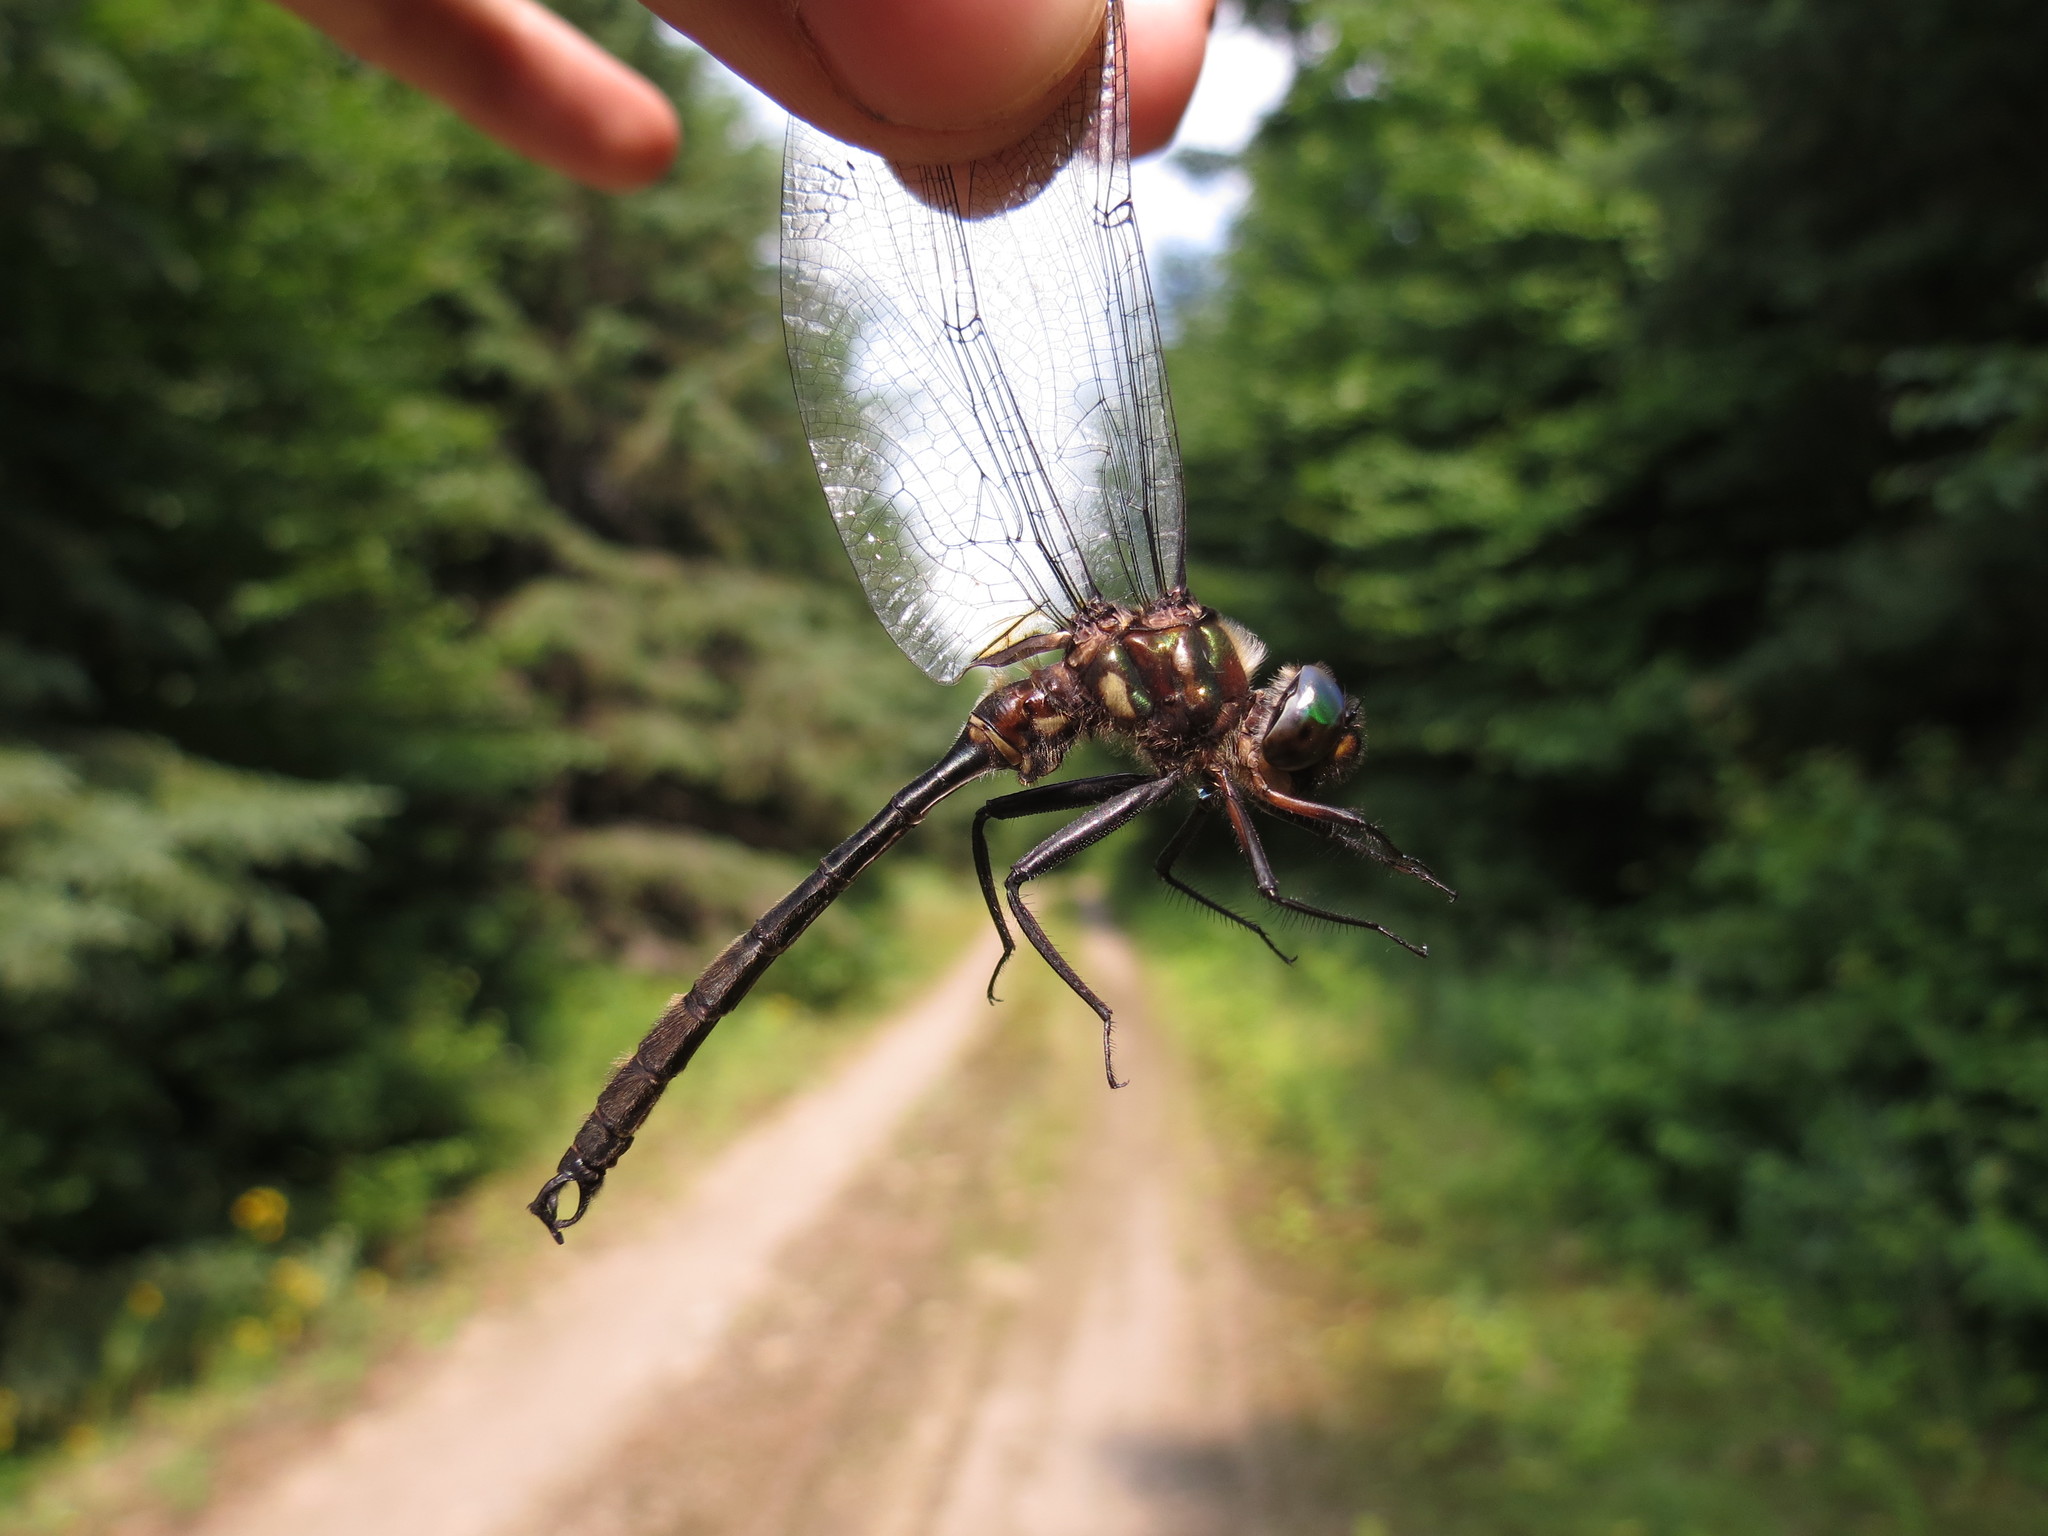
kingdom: Animalia
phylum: Arthropoda
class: Insecta
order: Odonata
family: Corduliidae
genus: Somatochlora
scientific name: Somatochlora tenebrosa
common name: Clamp-tipped emerald
